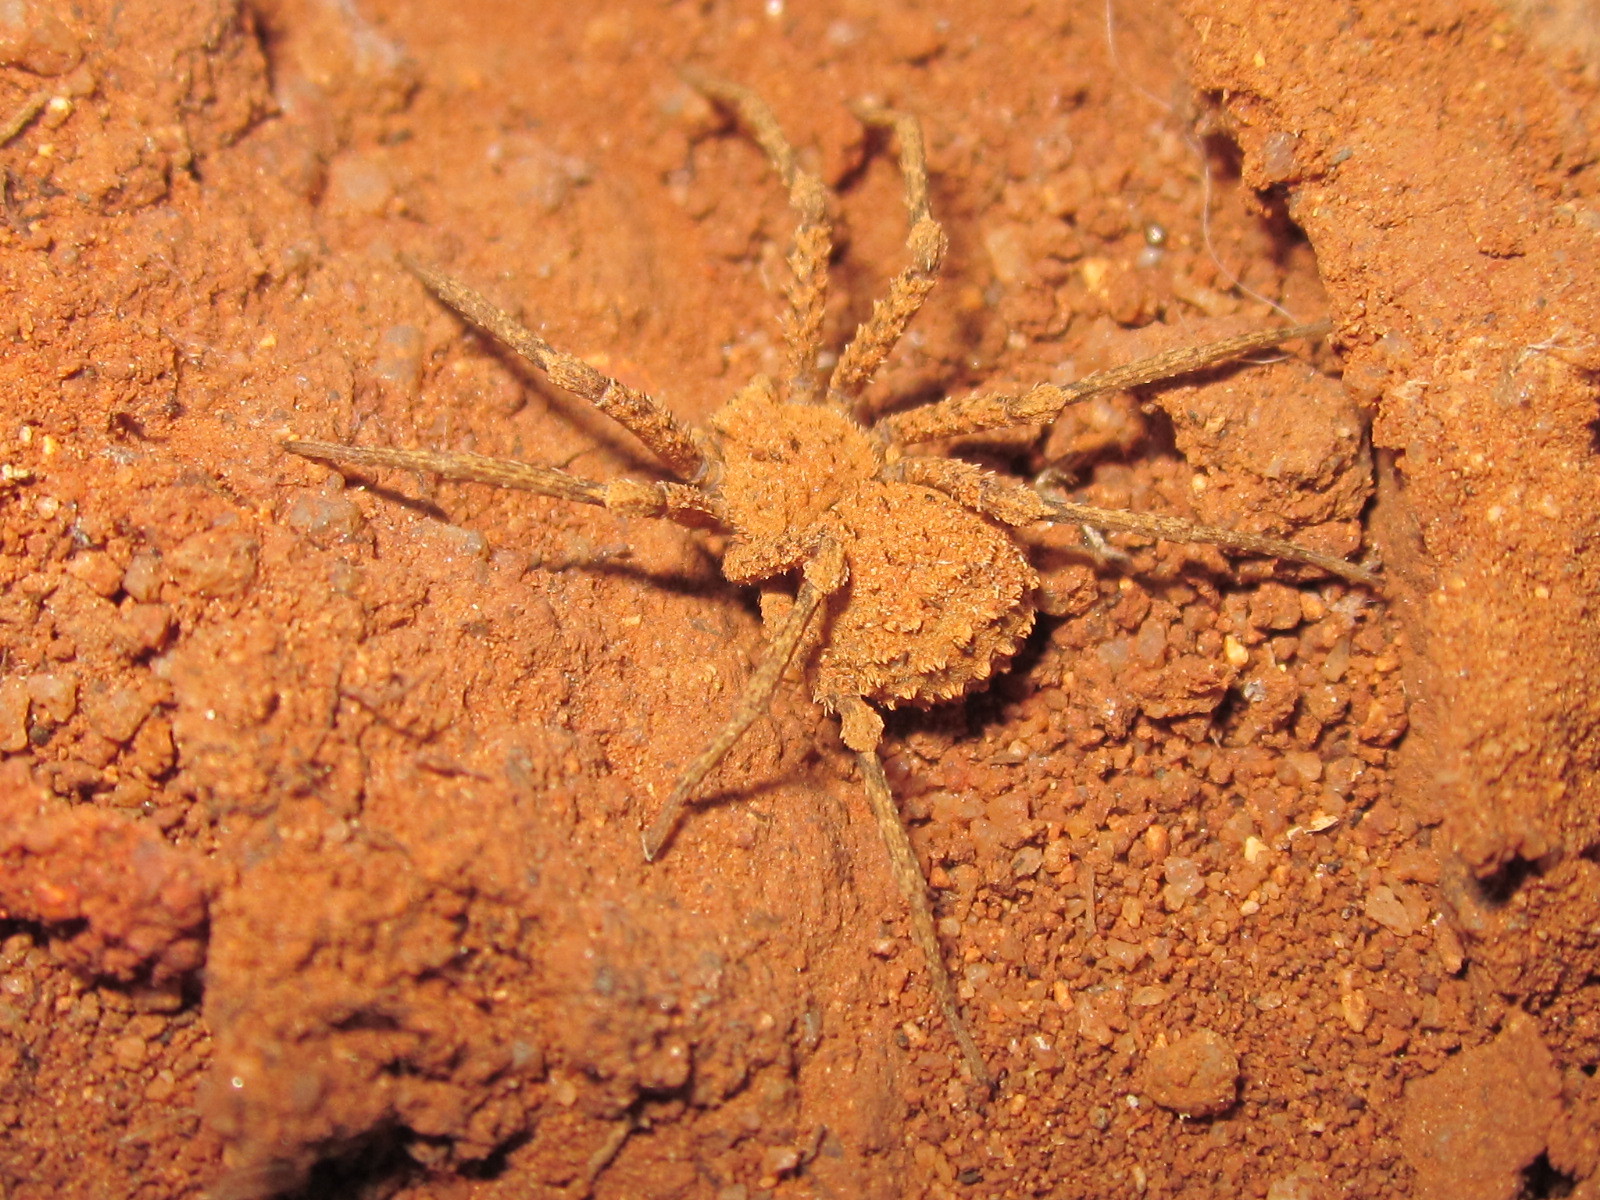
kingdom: Animalia
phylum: Arthropoda
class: Arachnida
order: Araneae
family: Sicariidae
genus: Sicarius
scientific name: Sicarius fumosus
